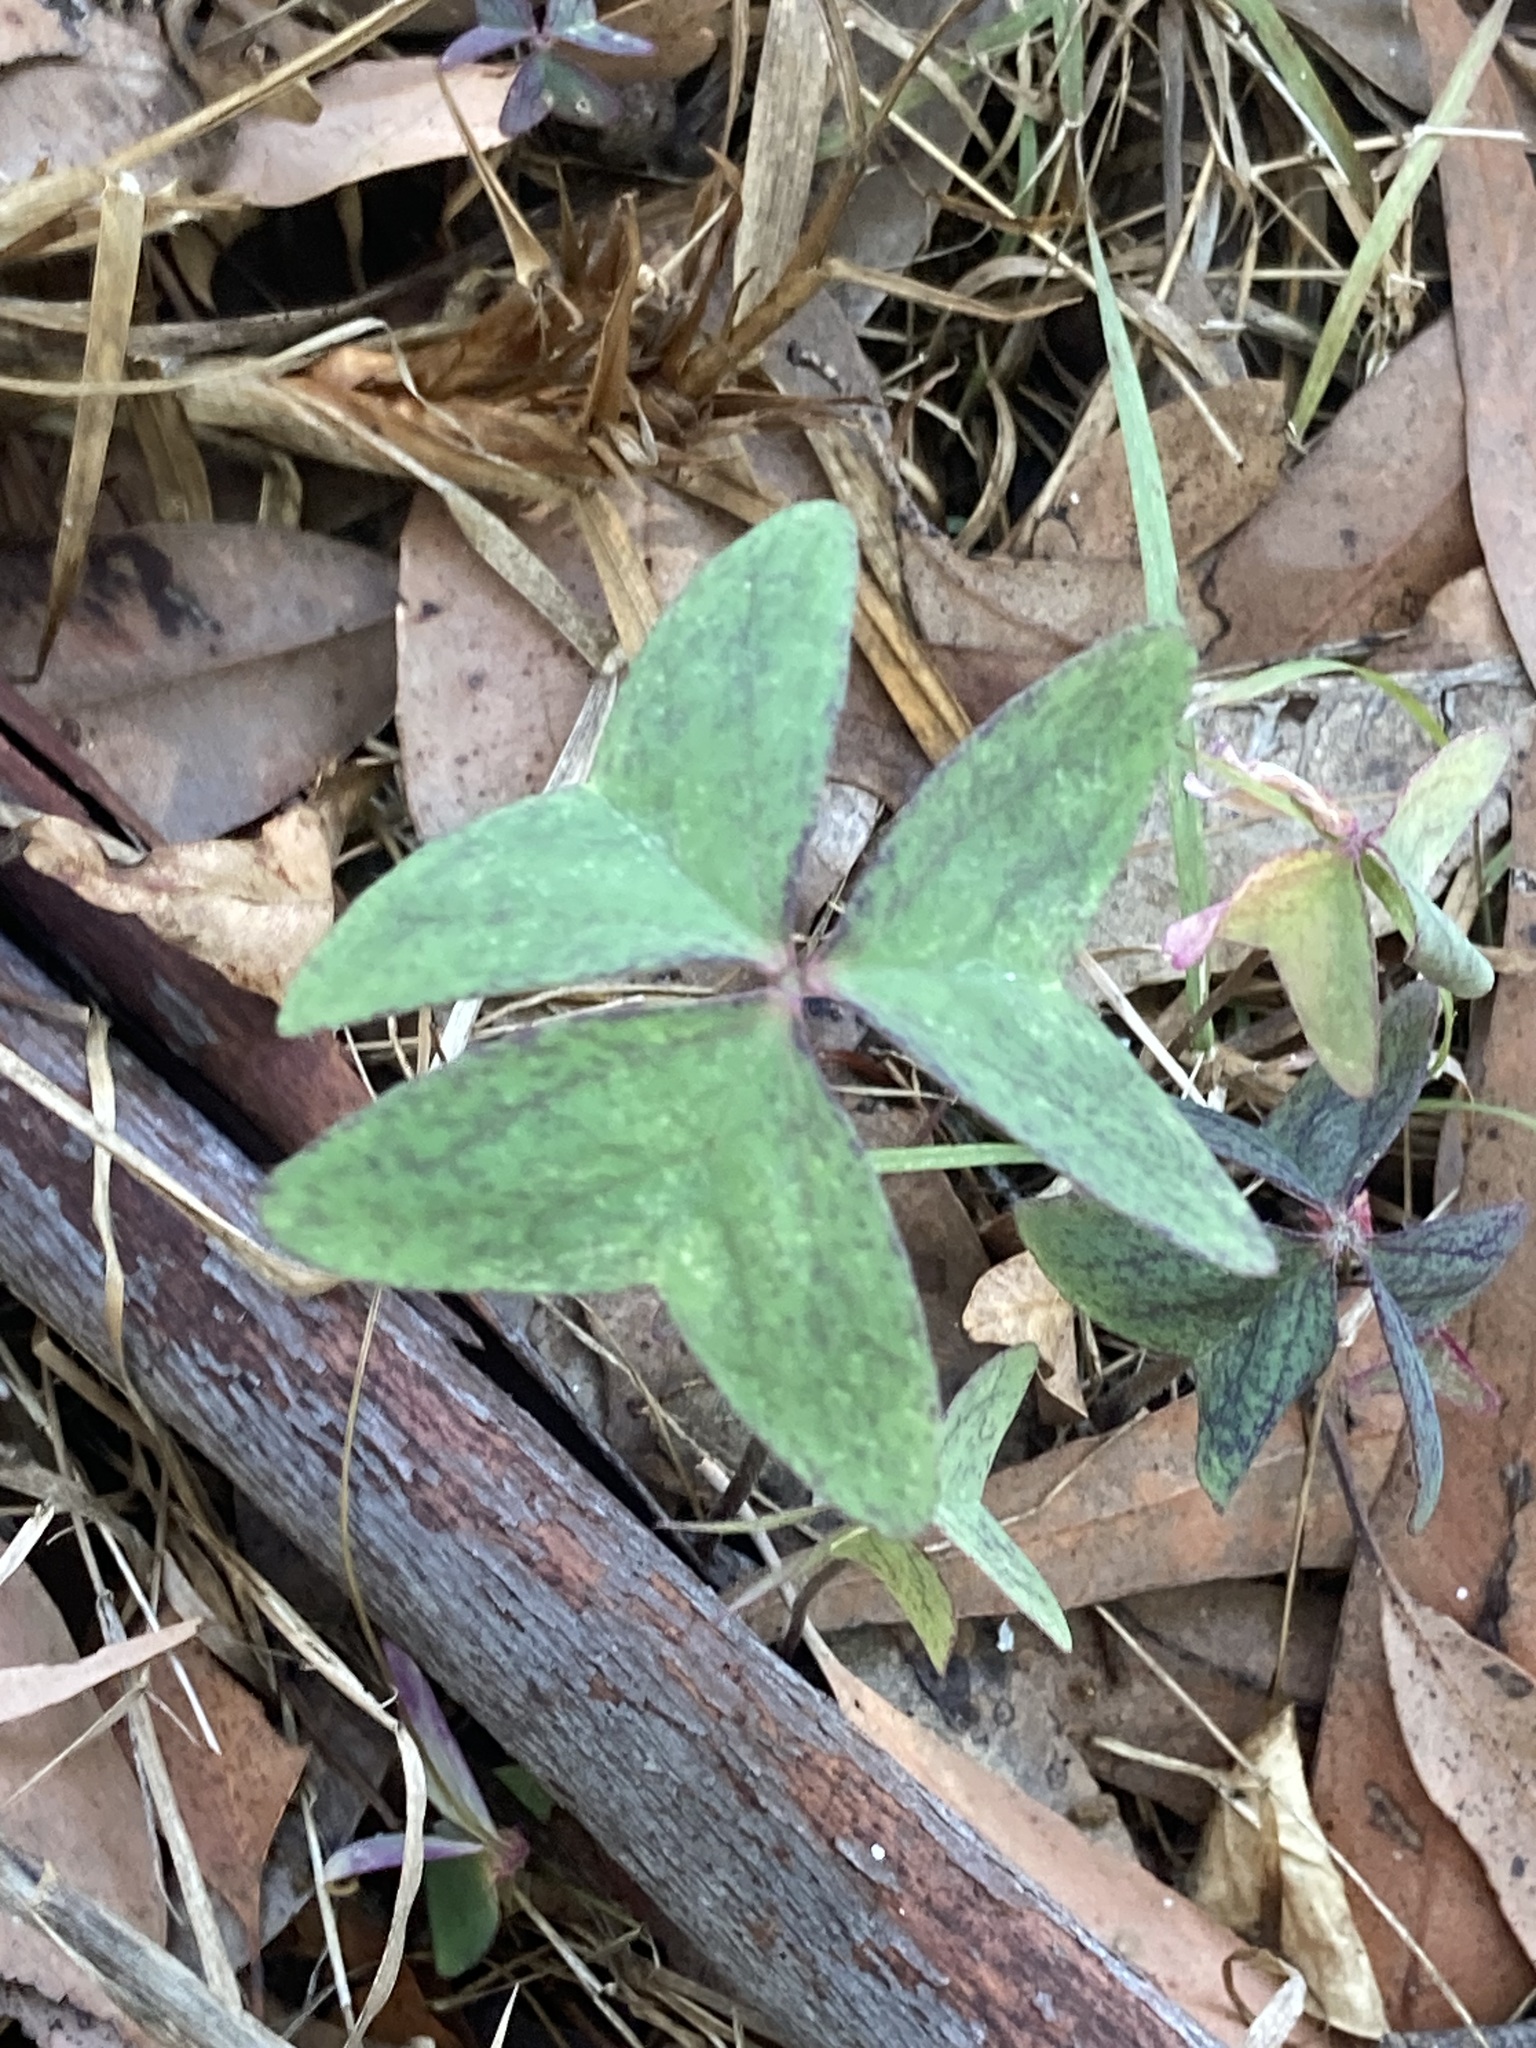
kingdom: Plantae
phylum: Tracheophyta
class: Magnoliopsida
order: Oxalidales
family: Oxalidaceae
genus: Oxalis
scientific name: Oxalis latifolia
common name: Garden pink-sorrel
